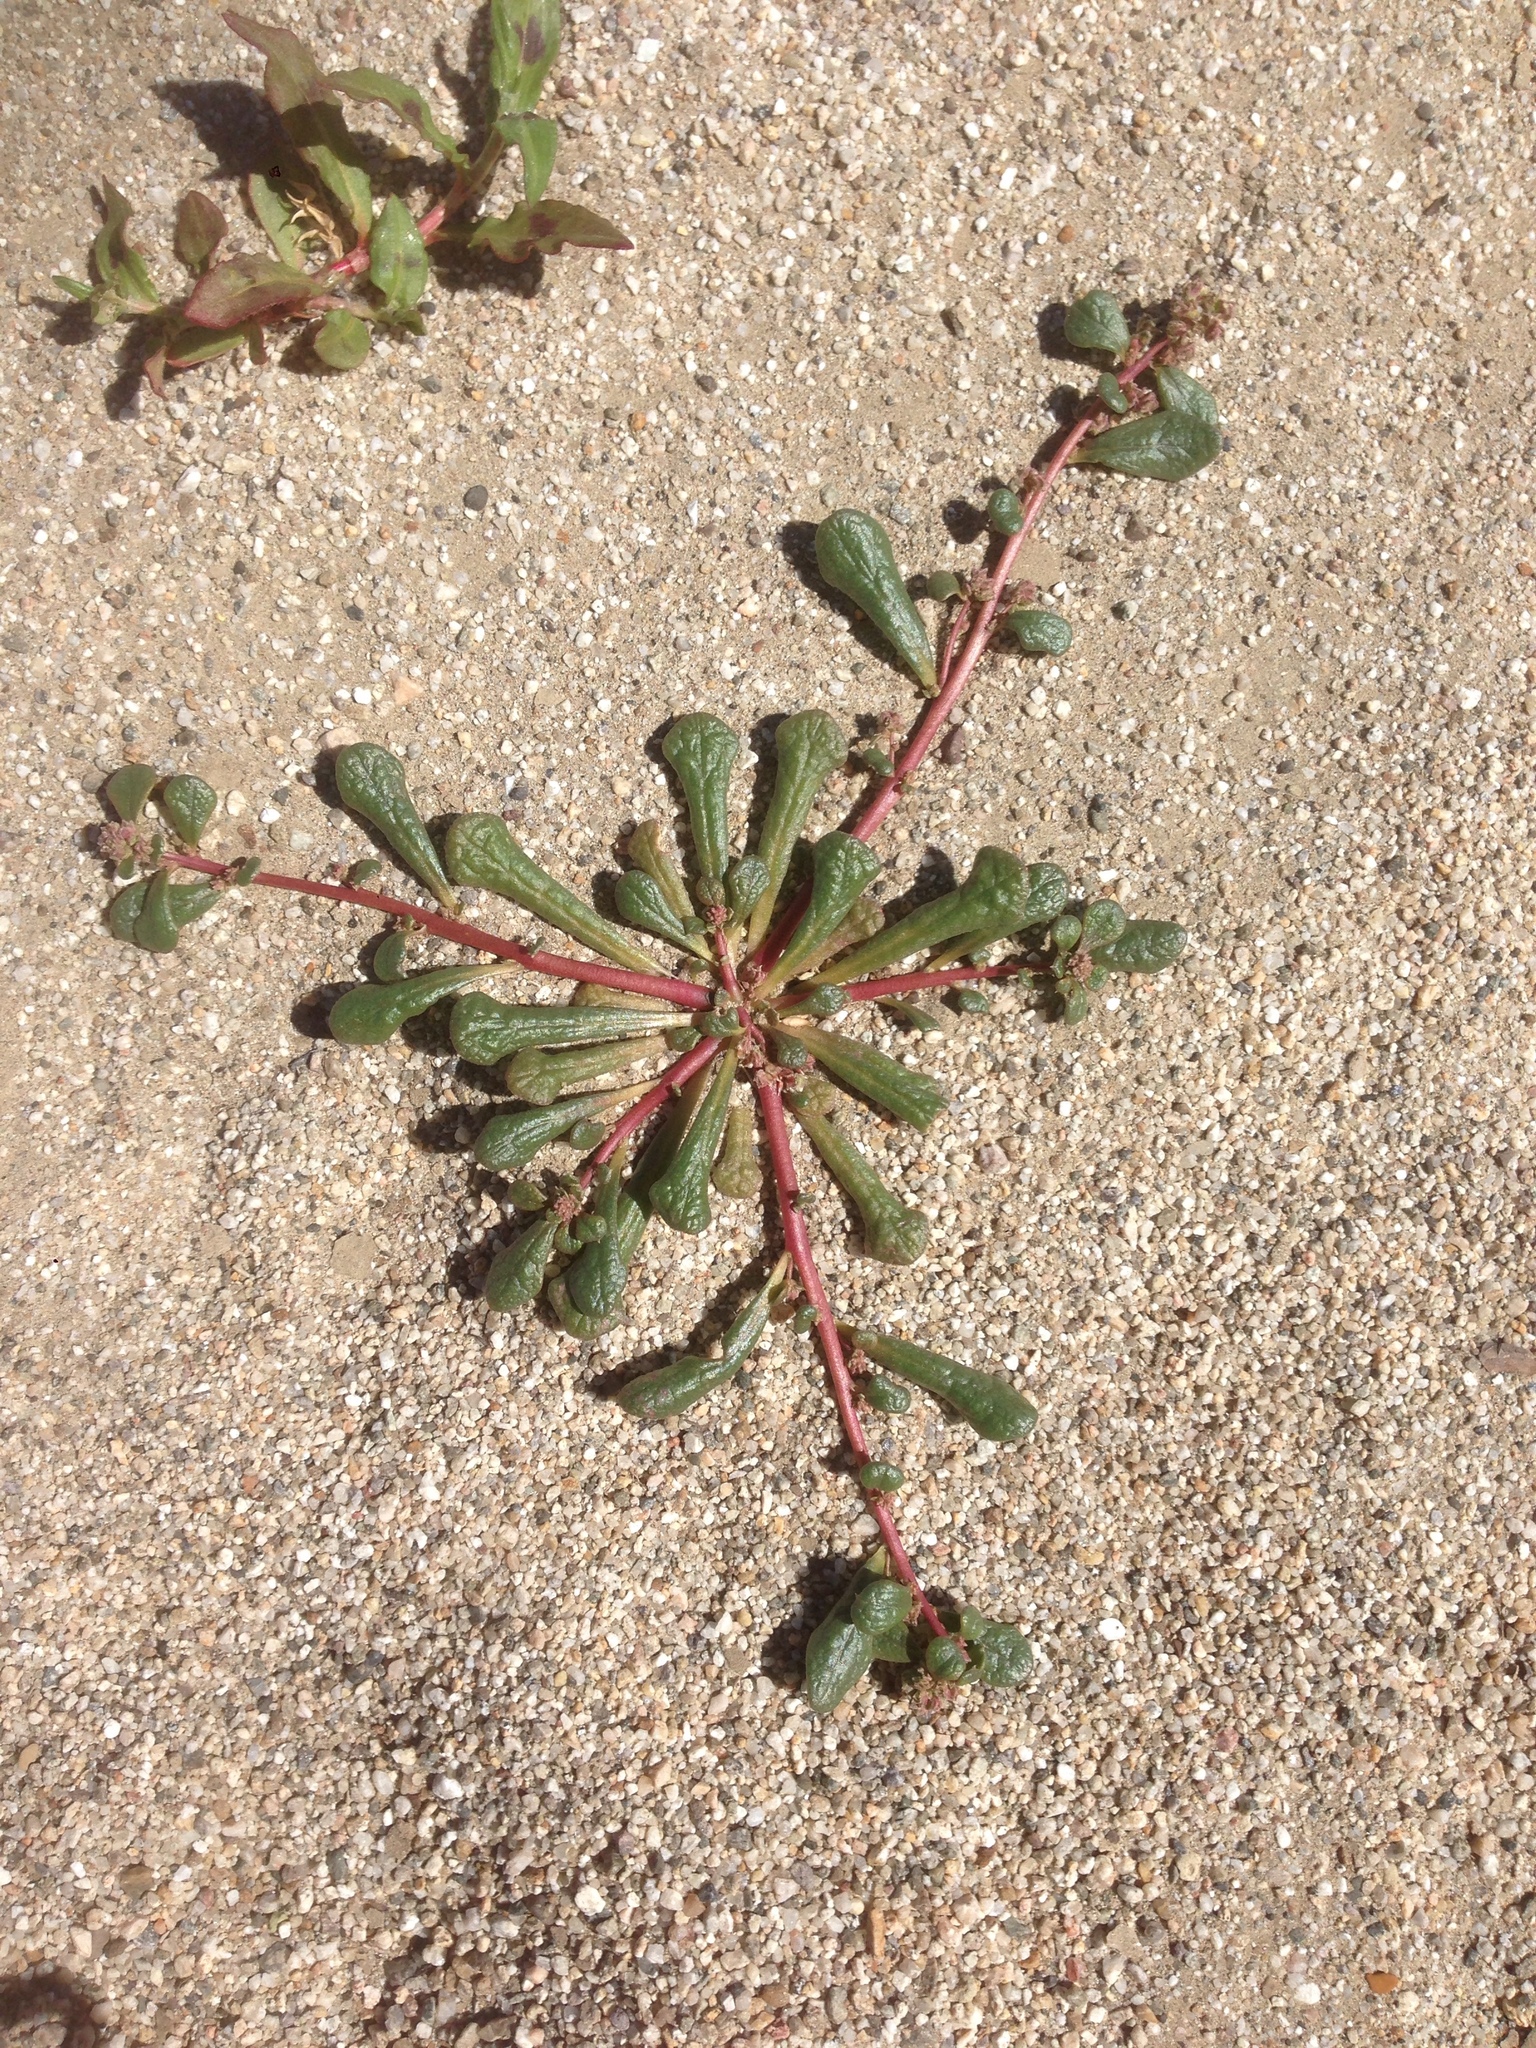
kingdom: Plantae
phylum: Tracheophyta
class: Magnoliopsida
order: Caryophyllales
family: Montiaceae
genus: Calyptridium
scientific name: Calyptridium monandrum
